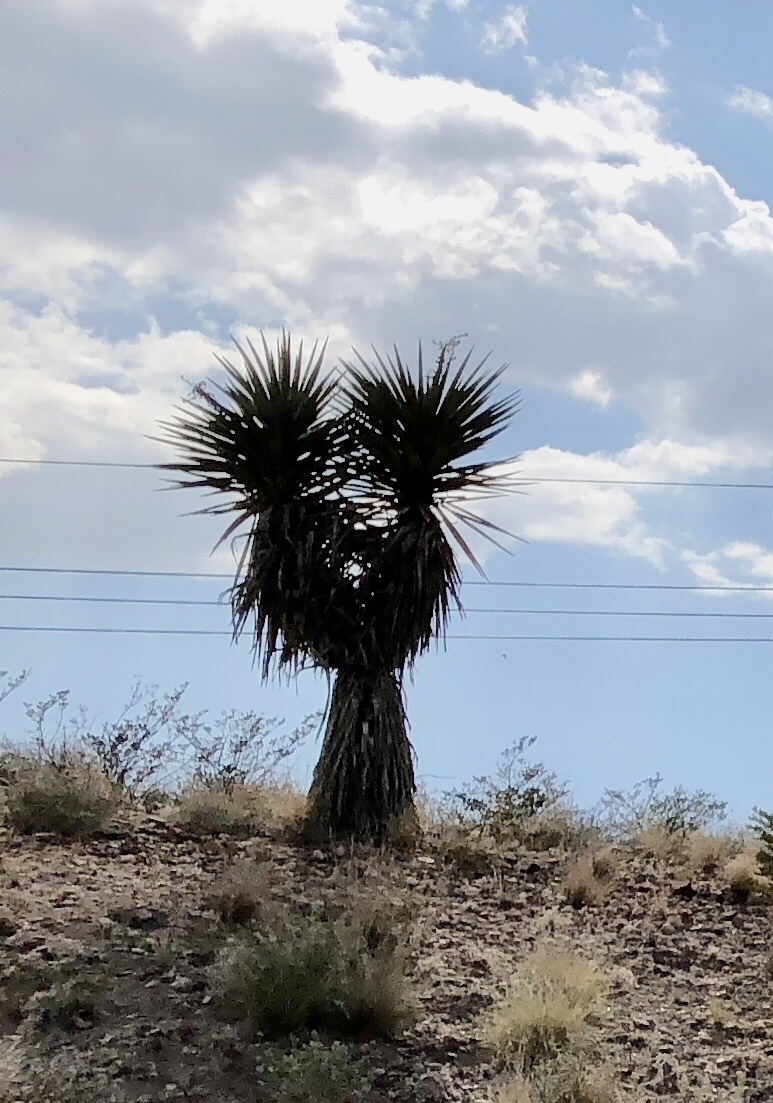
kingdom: Plantae
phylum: Tracheophyta
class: Liliopsida
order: Asparagales
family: Asparagaceae
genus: Yucca
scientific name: Yucca treculiana
